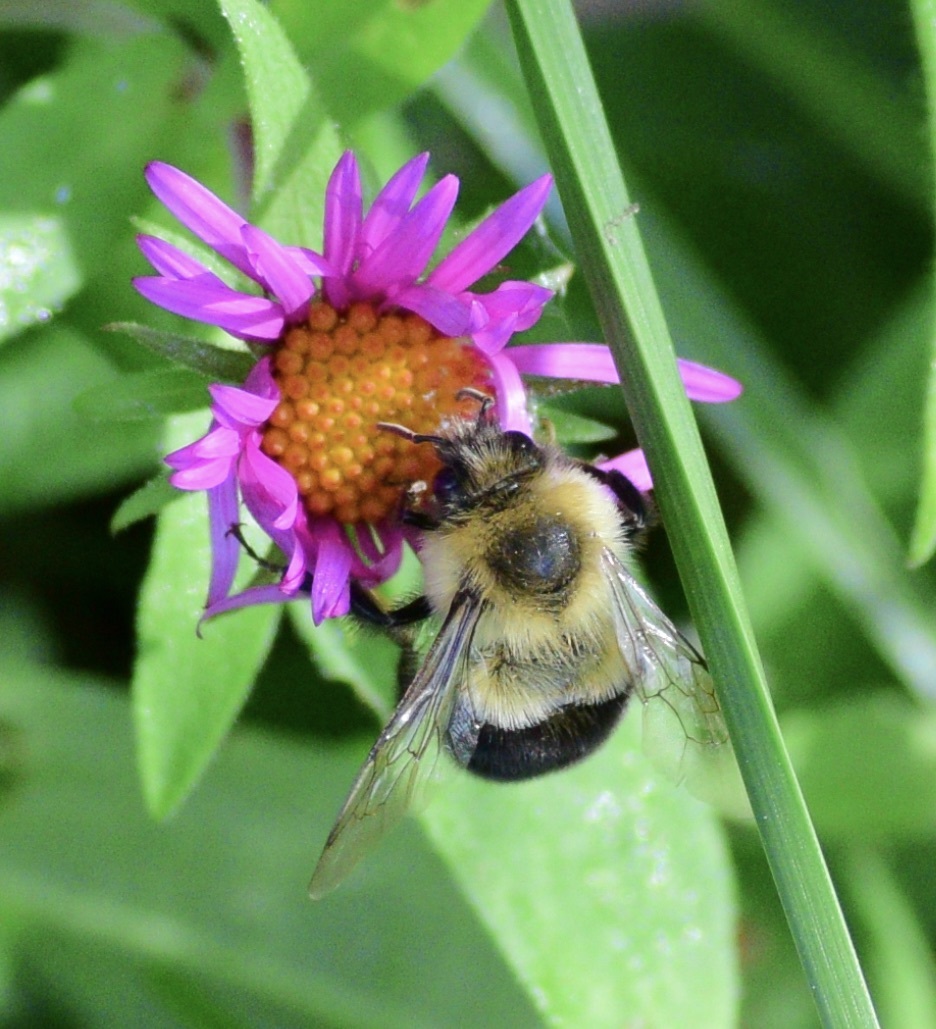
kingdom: Animalia
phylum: Arthropoda
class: Insecta
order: Hymenoptera
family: Apidae
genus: Bombus
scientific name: Bombus impatiens
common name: Common eastern bumble bee
